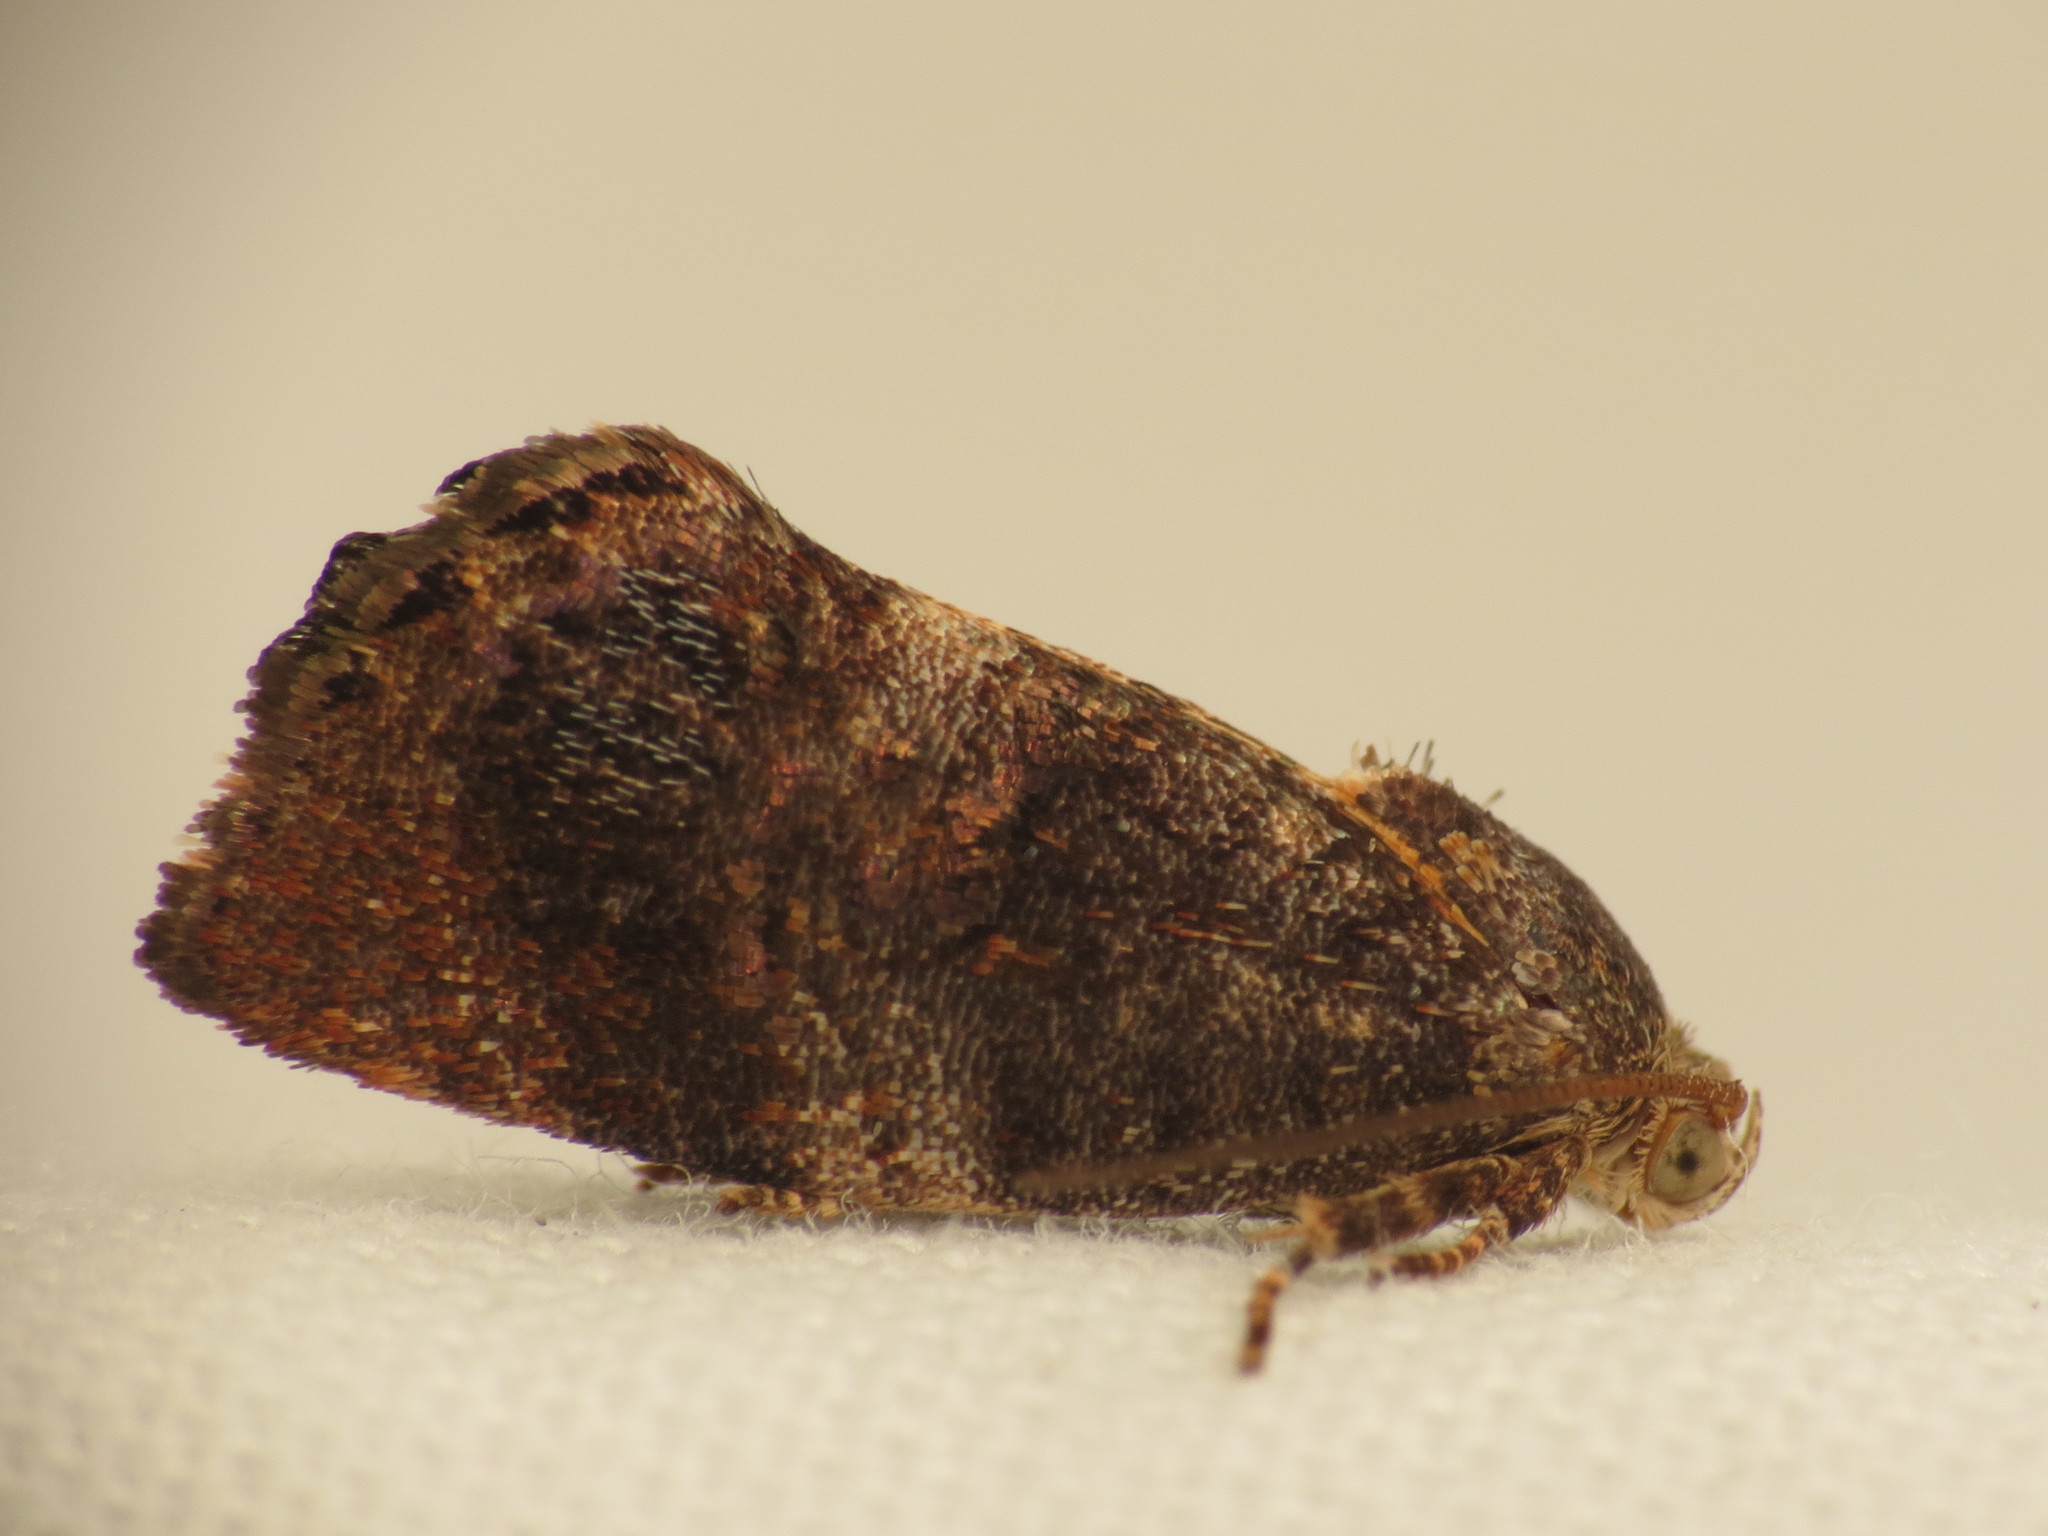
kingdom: Animalia
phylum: Arthropoda
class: Insecta
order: Lepidoptera
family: Depressariidae
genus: Peritropha
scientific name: Peritropha oligodrachma
